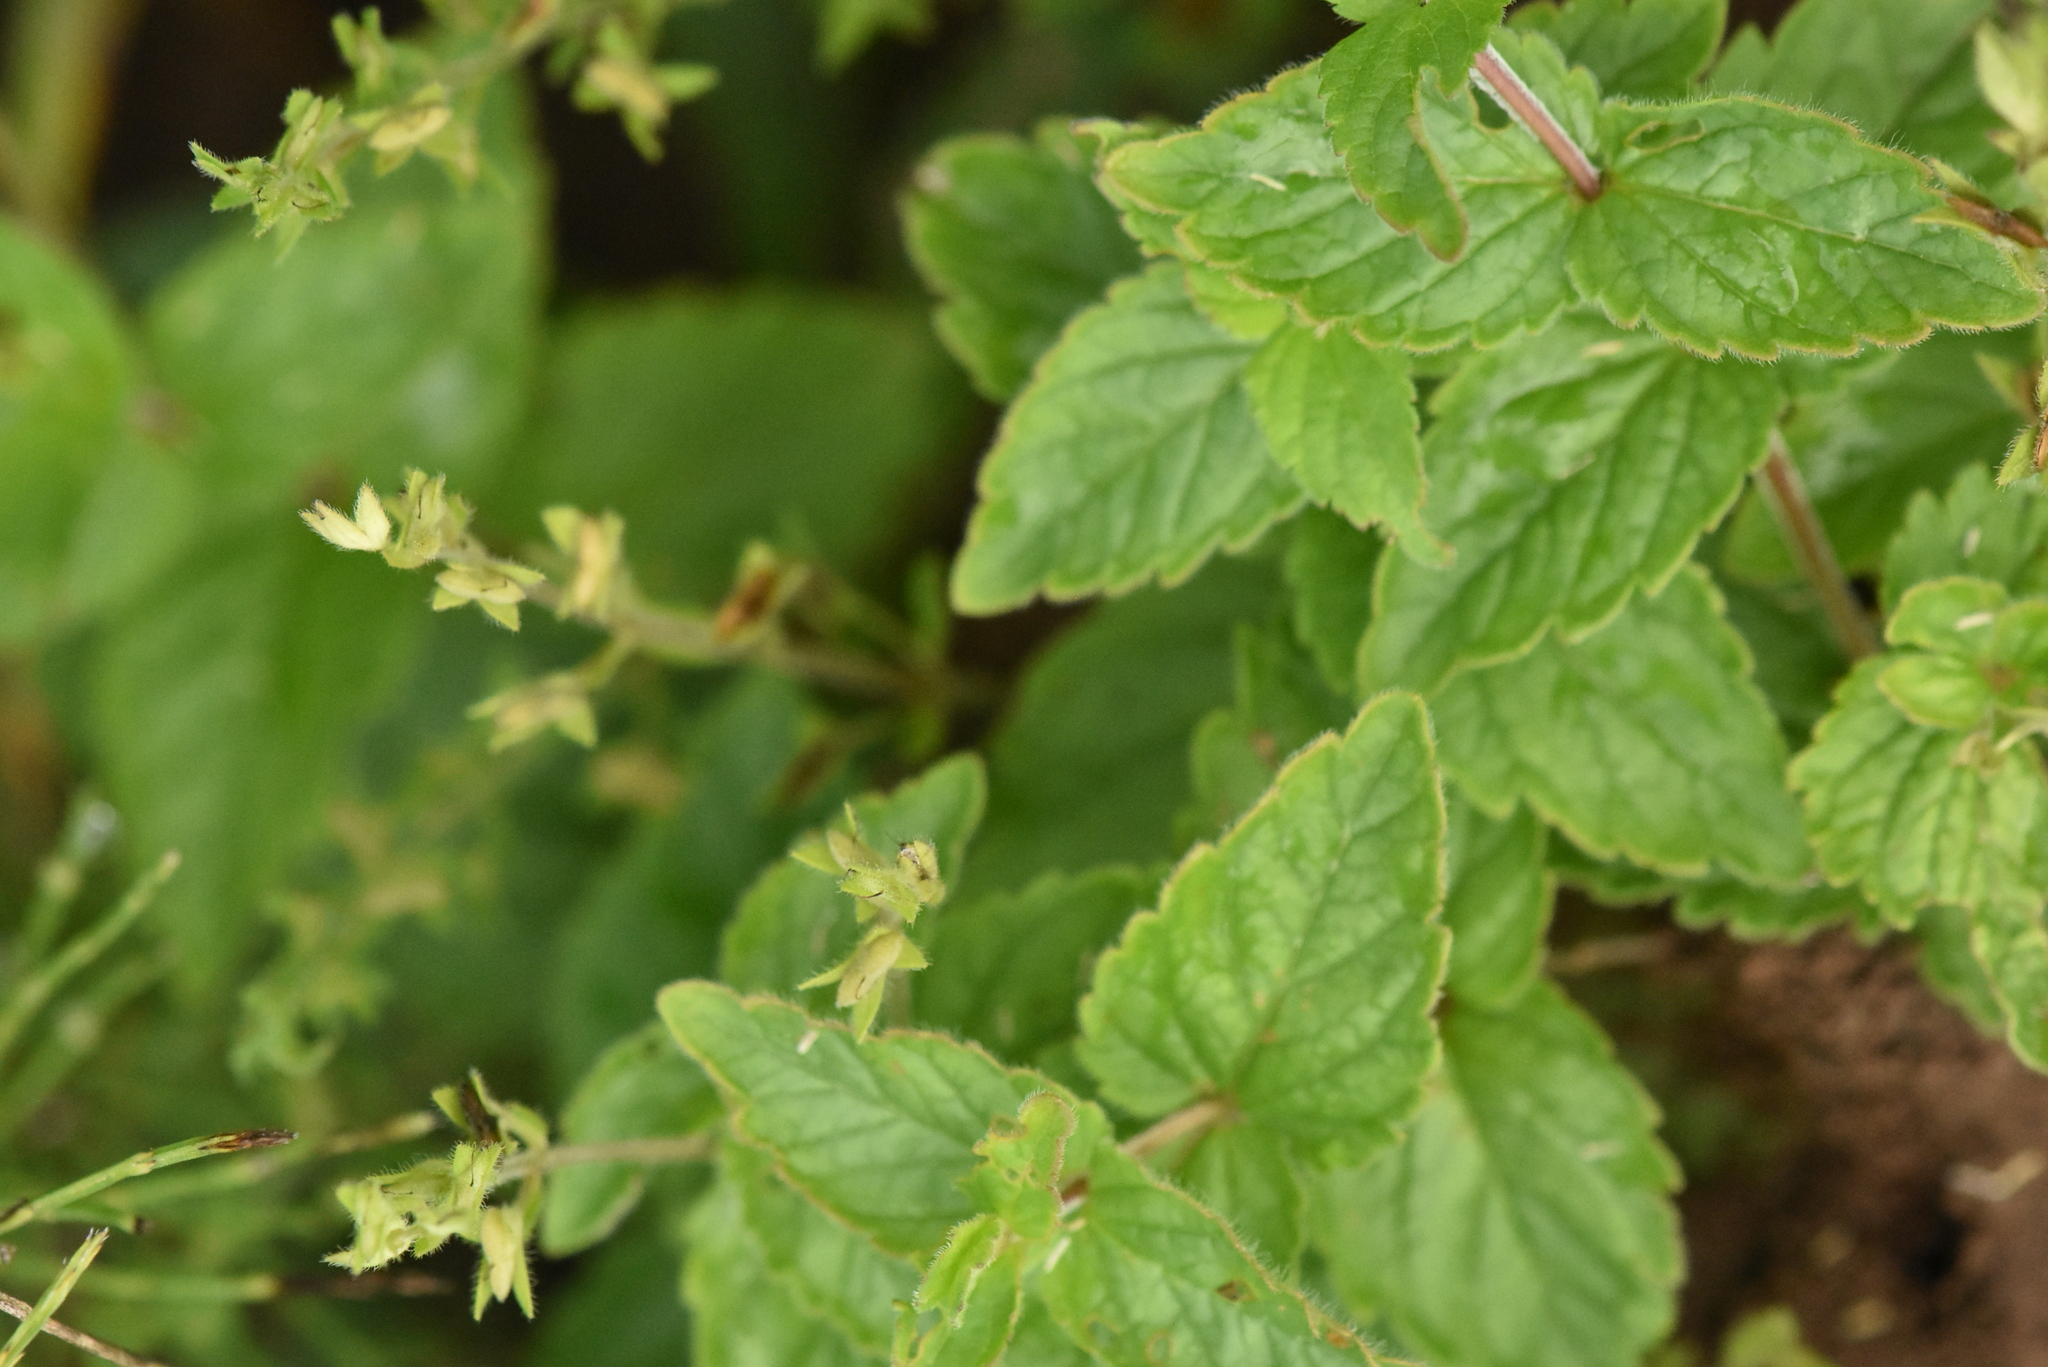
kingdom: Plantae
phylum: Tracheophyta
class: Magnoliopsida
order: Lamiales
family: Plantaginaceae
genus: Veronica
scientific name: Veronica chamaedrys
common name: Germander speedwell
